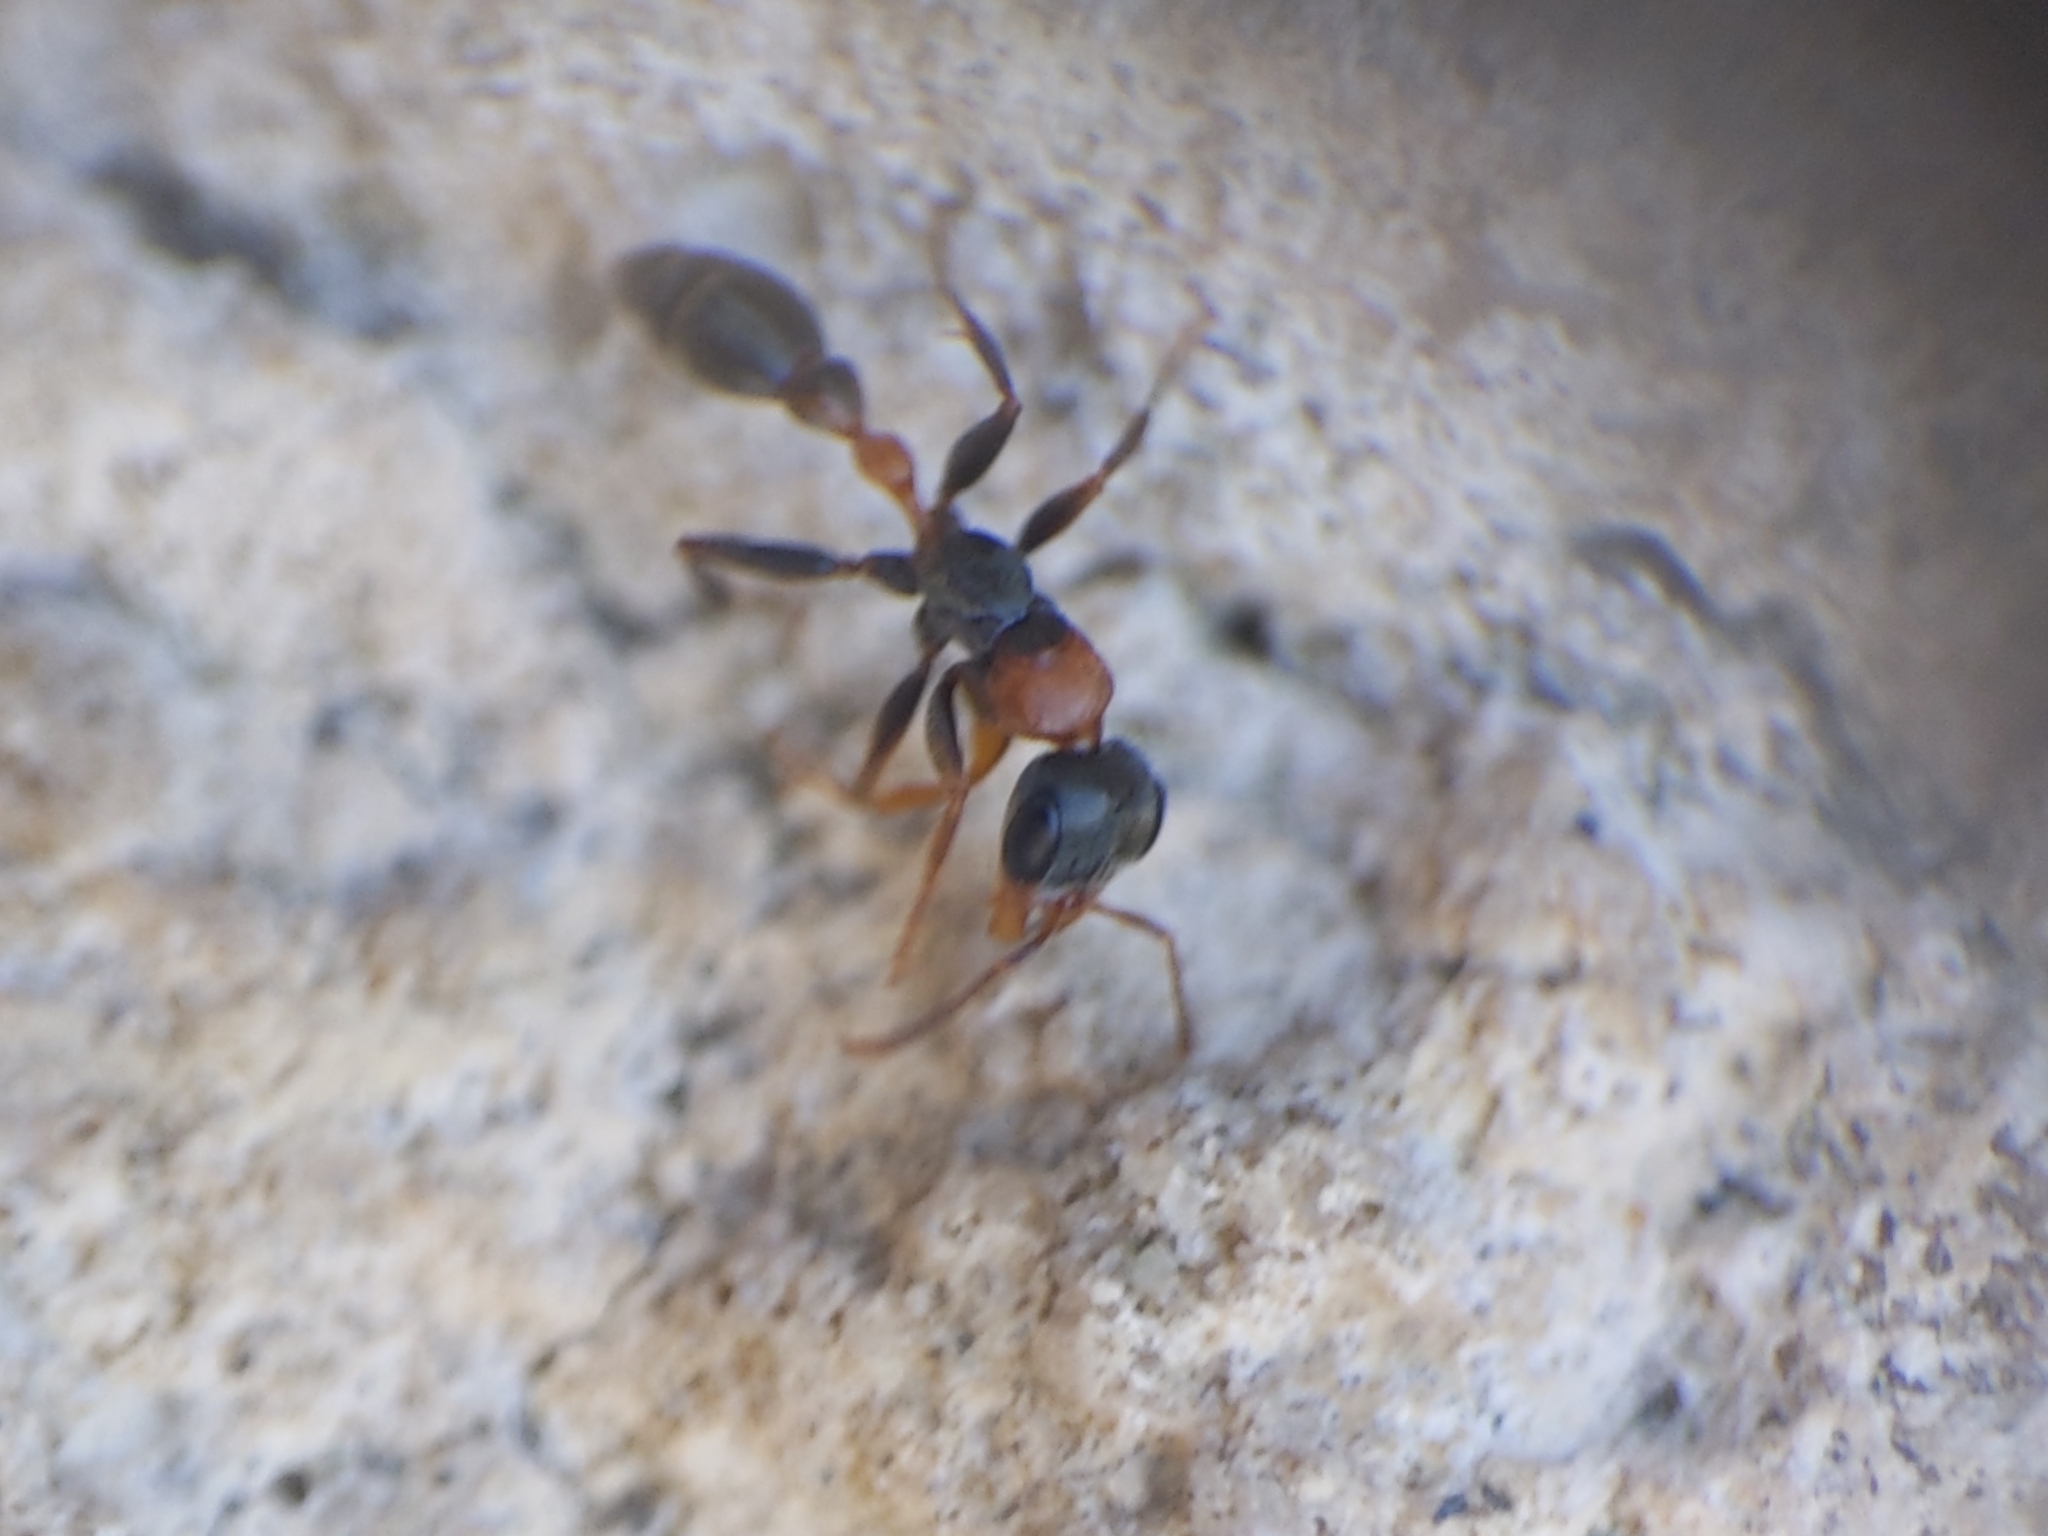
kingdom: Animalia
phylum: Arthropoda
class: Insecta
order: Hymenoptera
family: Formicidae
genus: Pseudomyrmex
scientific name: Pseudomyrmex gracilis
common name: Graceful twig ant
